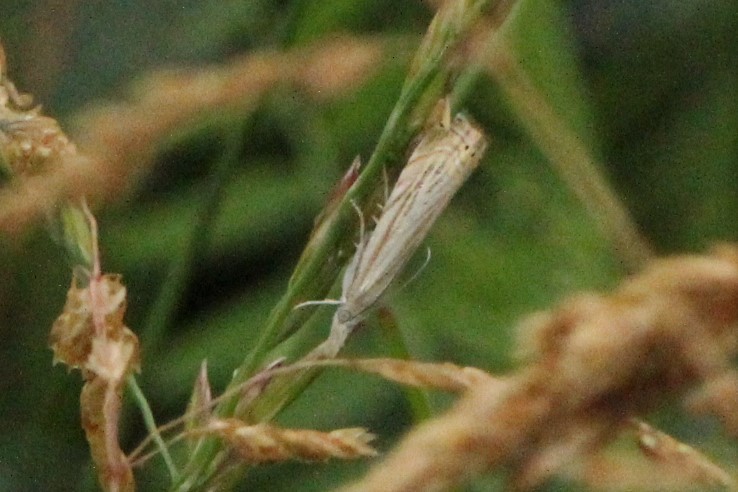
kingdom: Animalia
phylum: Arthropoda
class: Insecta
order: Lepidoptera
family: Crambidae
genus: Chrysoteuchia
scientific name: Chrysoteuchia topiarius
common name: Topiary grass-veneer
